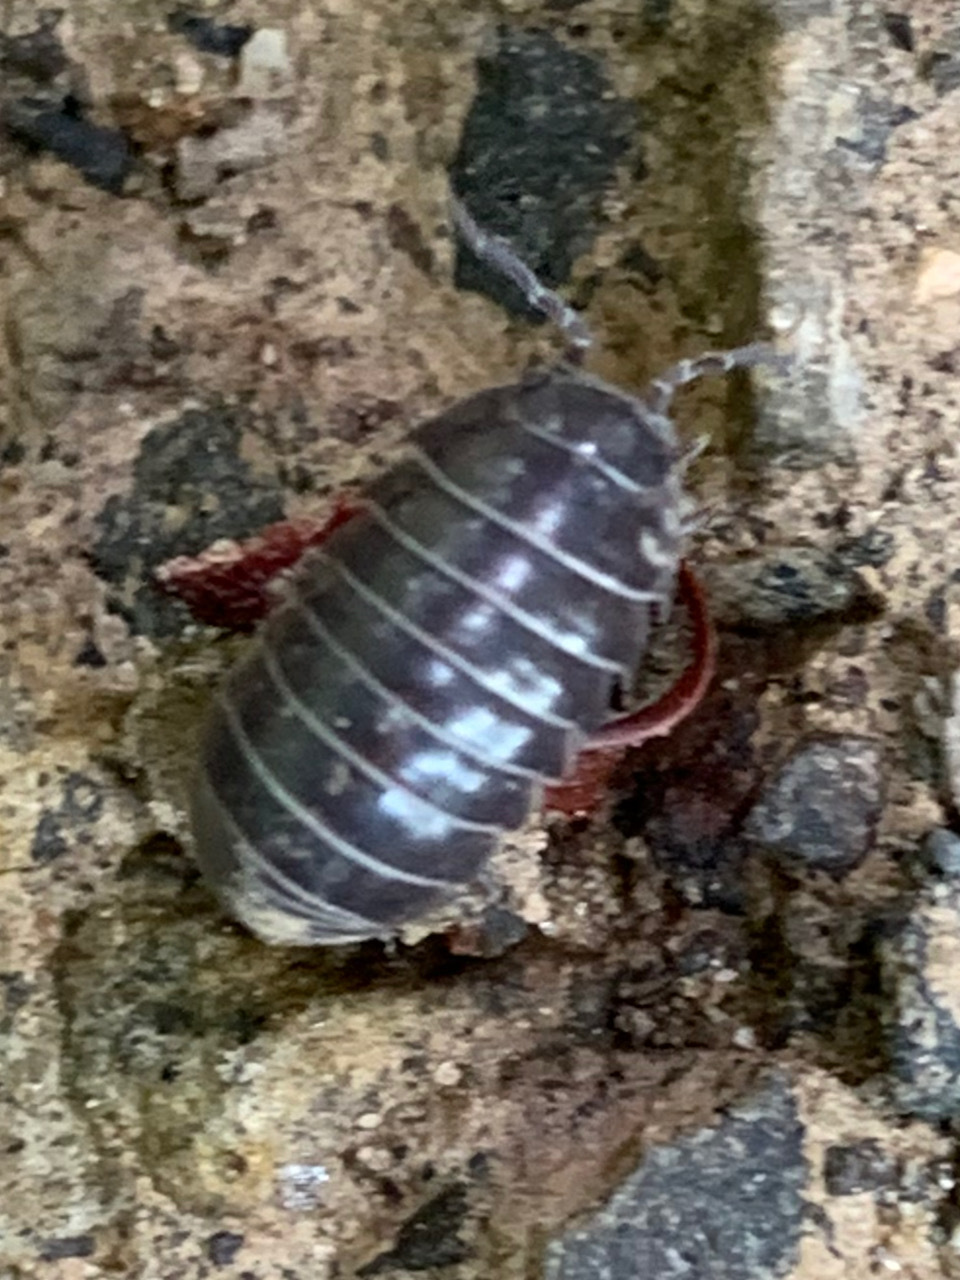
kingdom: Animalia
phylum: Arthropoda
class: Malacostraca
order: Isopoda
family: Armadillidiidae
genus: Armadillidium
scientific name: Armadillidium vulgare
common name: Common pill woodlouse
